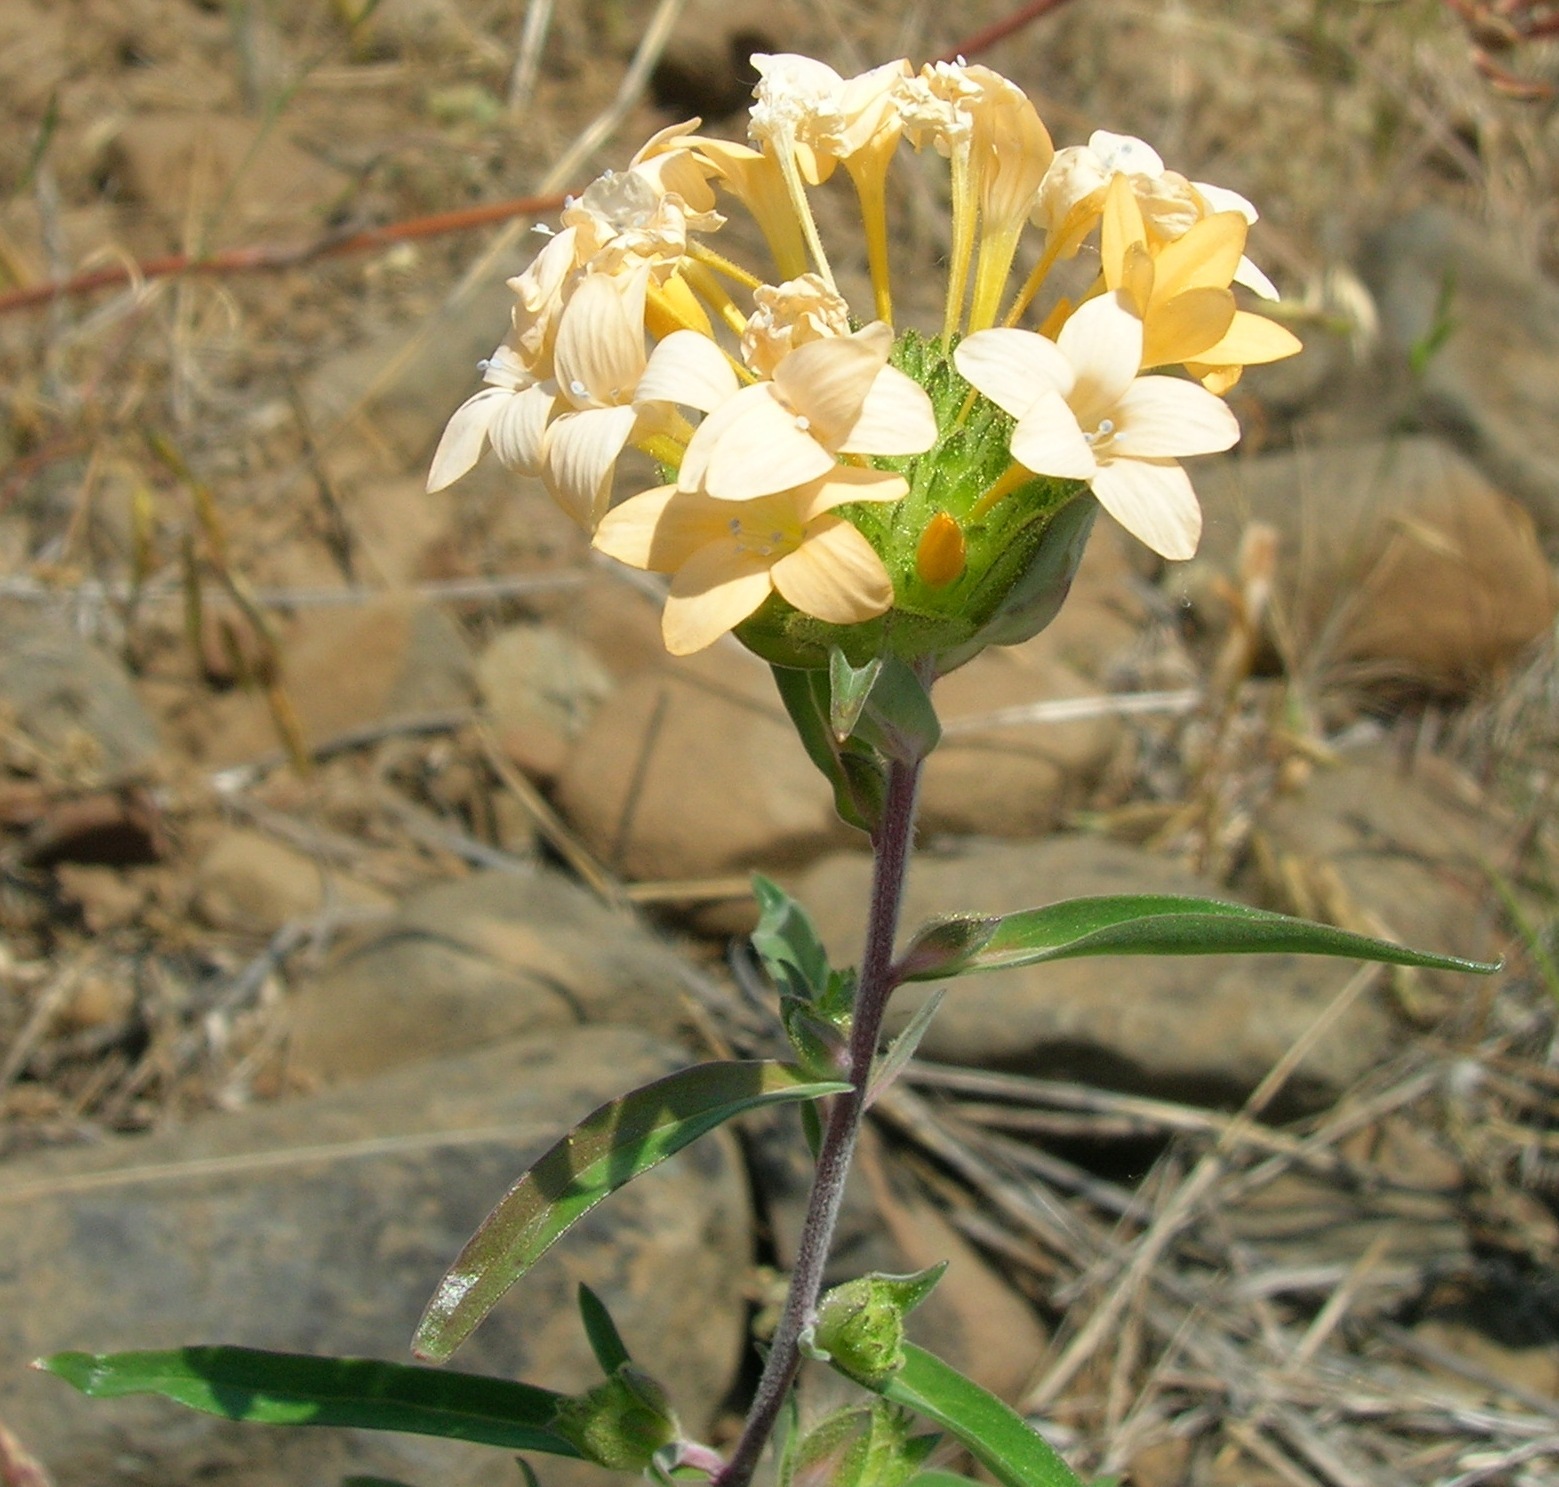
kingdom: Plantae
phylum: Tracheophyta
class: Magnoliopsida
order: Ericales
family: Polemoniaceae
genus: Collomia
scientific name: Collomia grandiflora
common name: California strawflower
